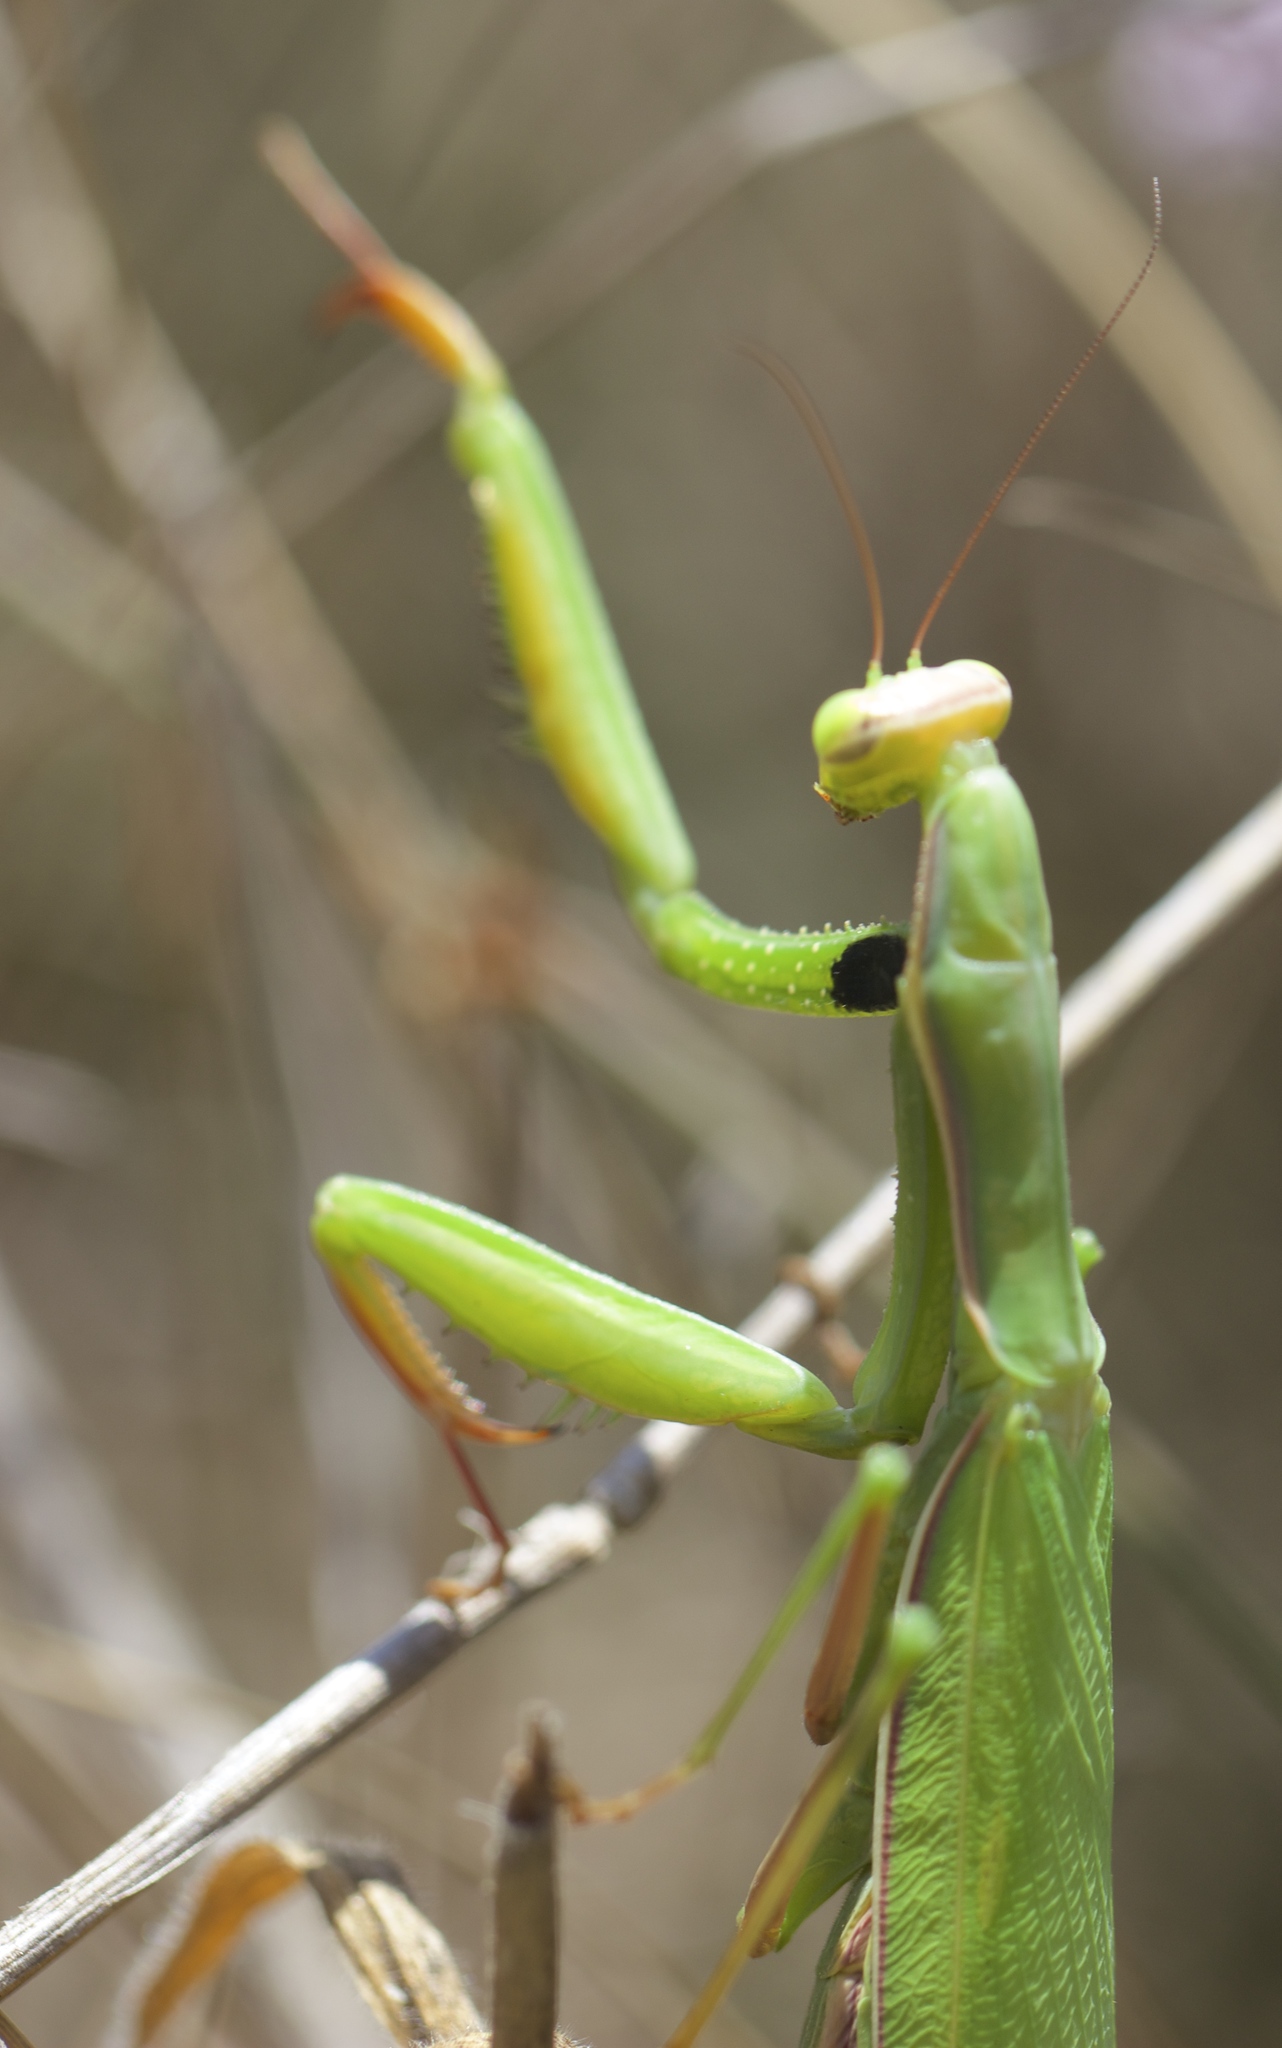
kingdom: Animalia
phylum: Arthropoda
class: Insecta
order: Mantodea
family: Mantidae
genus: Mantis
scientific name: Mantis religiosa
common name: Praying mantis
